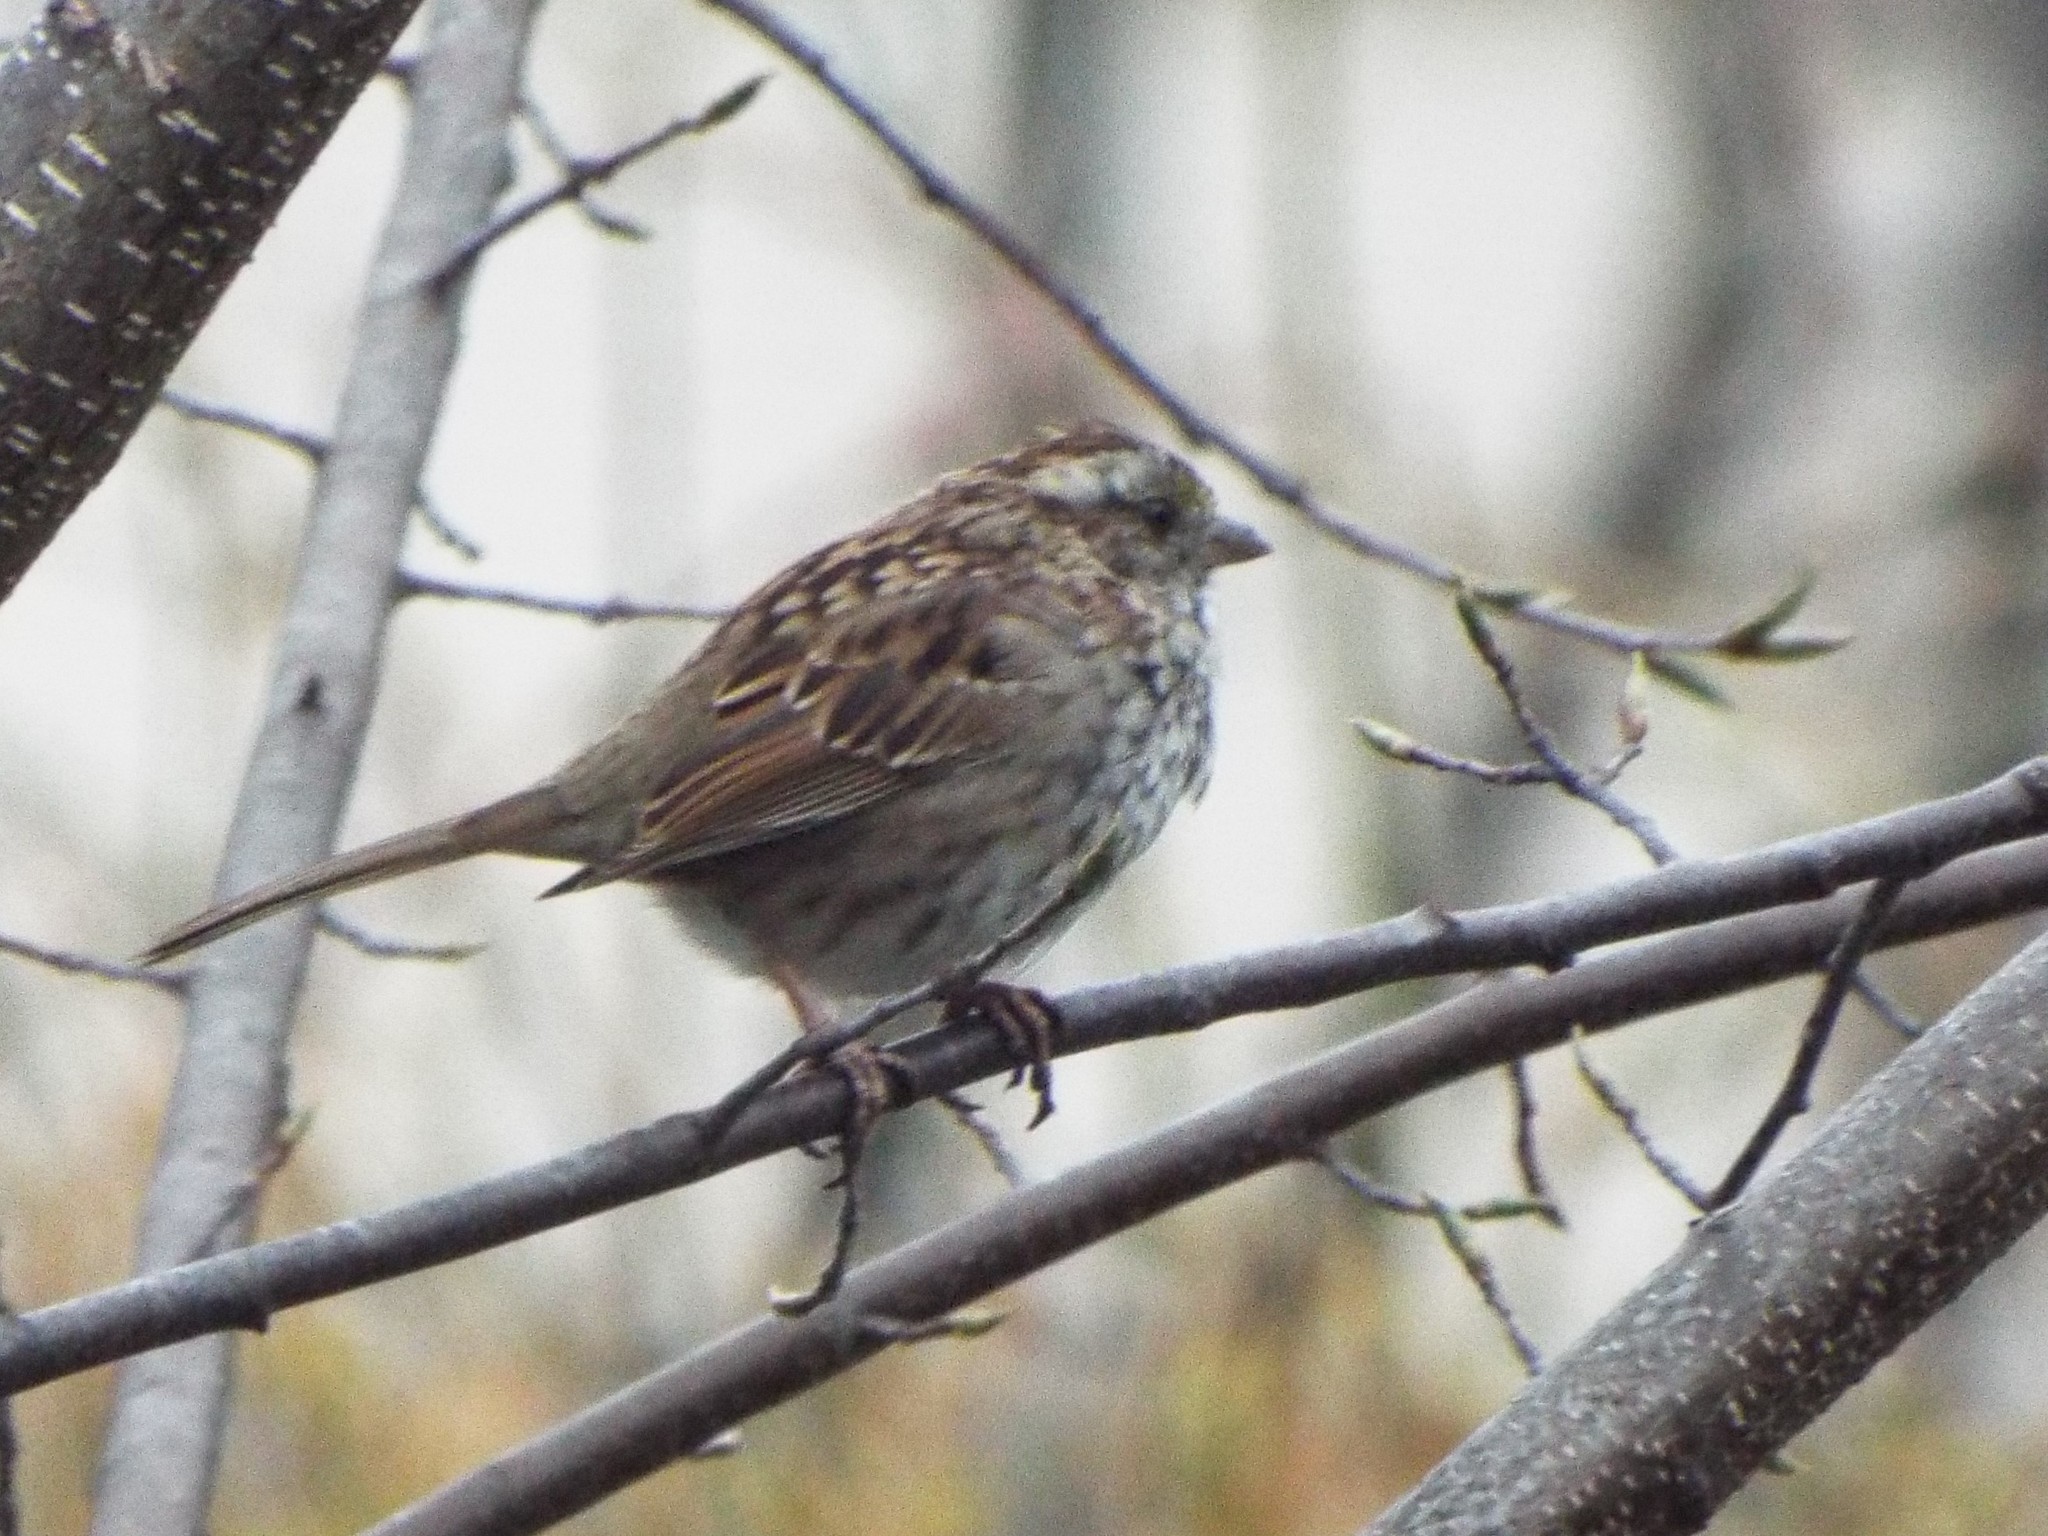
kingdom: Animalia
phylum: Chordata
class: Aves
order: Passeriformes
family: Passerellidae
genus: Zonotrichia
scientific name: Zonotrichia albicollis
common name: White-throated sparrow
